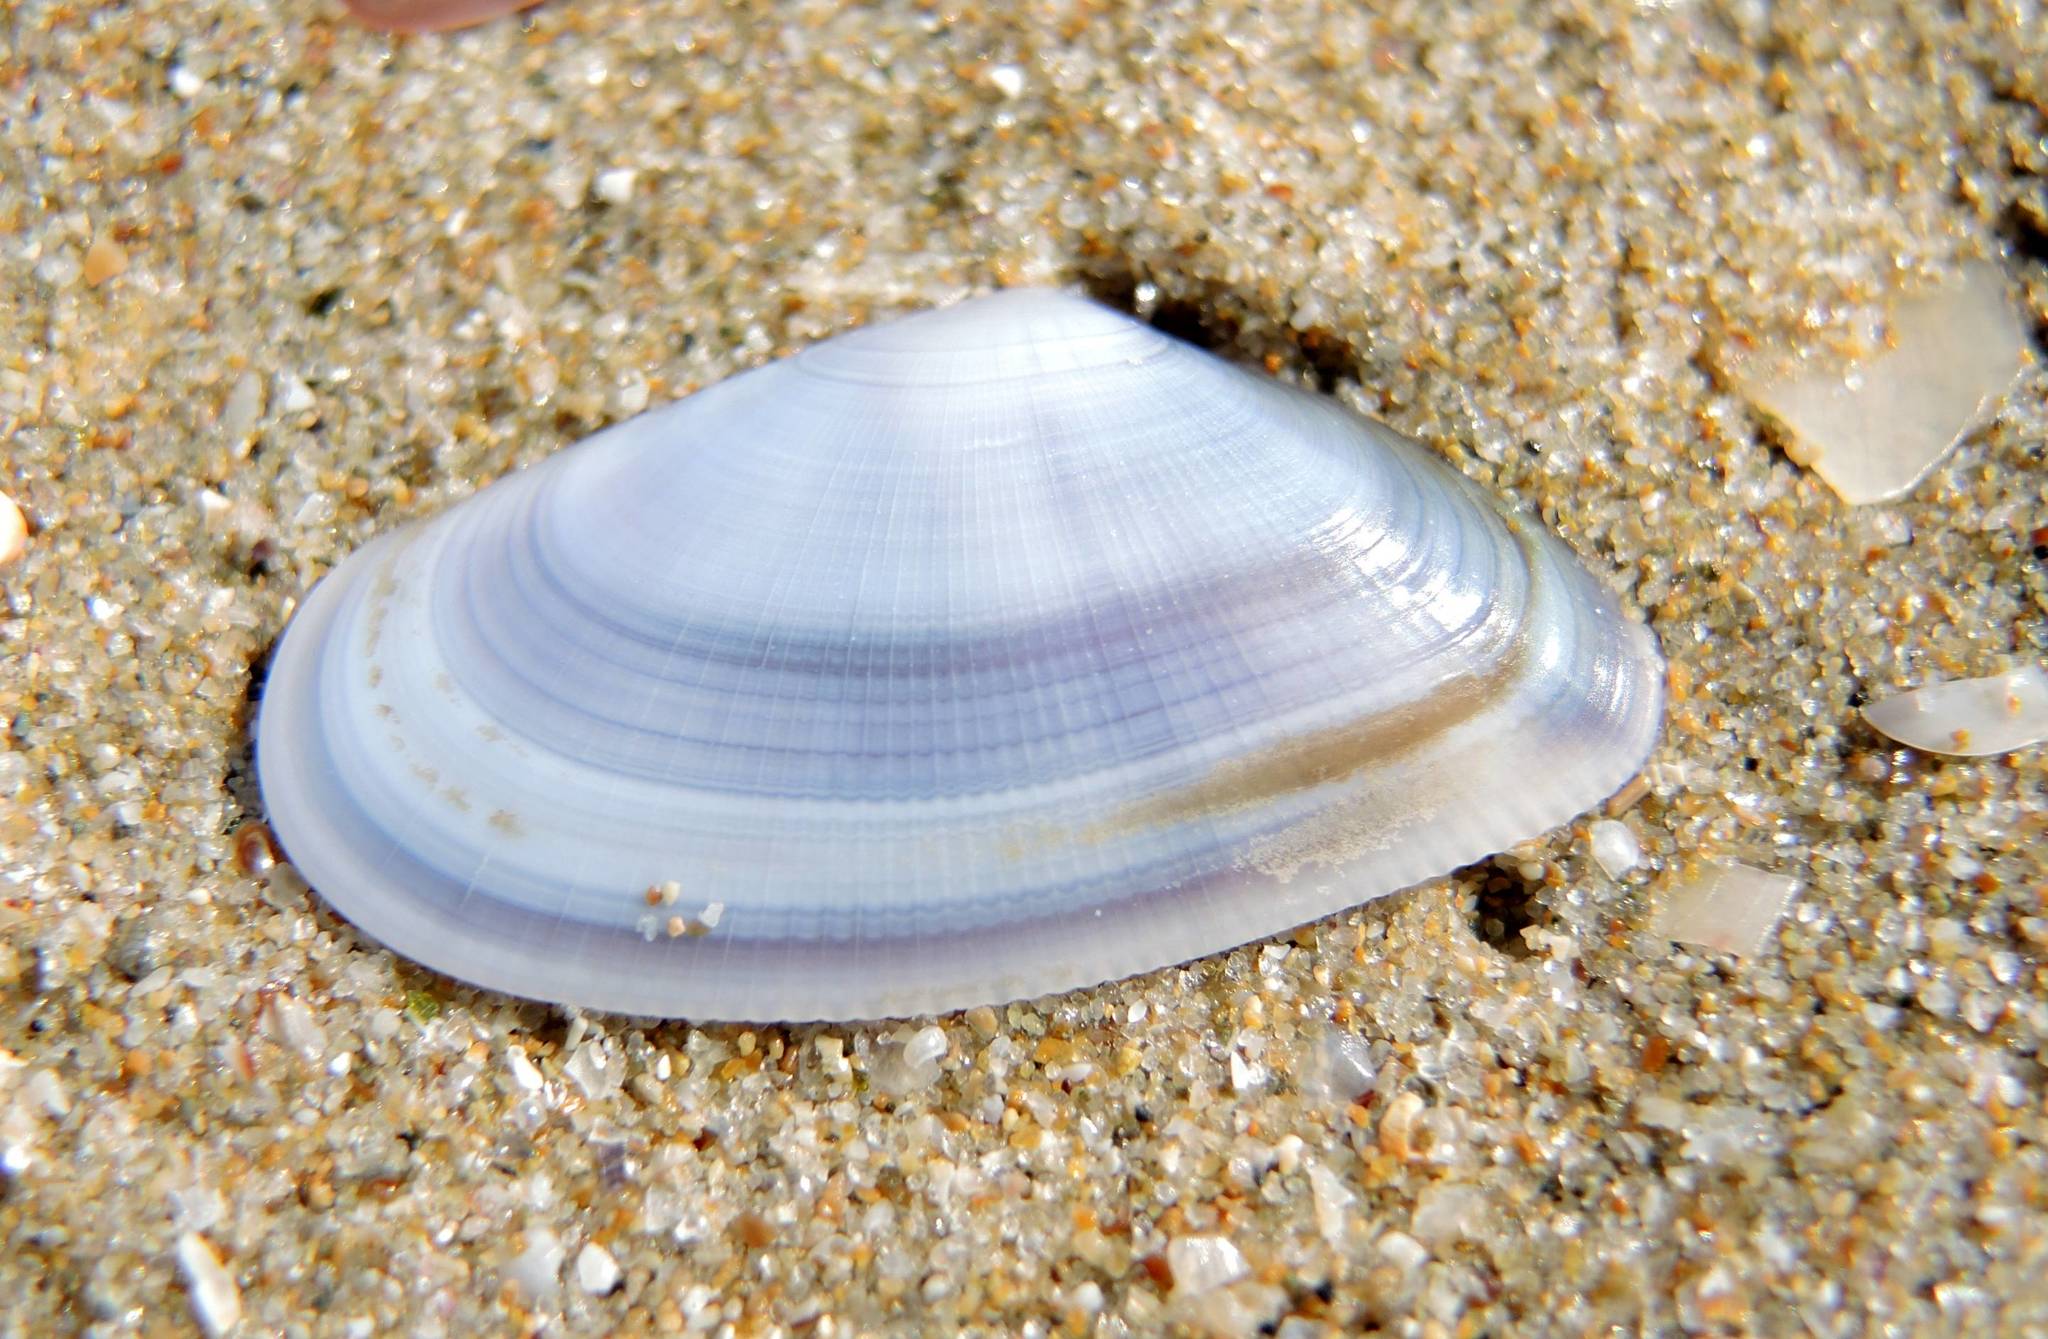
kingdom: Animalia
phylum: Mollusca
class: Bivalvia
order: Cardiida
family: Donacidae
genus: Donax
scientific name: Donax trunculus
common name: Truncate donax
